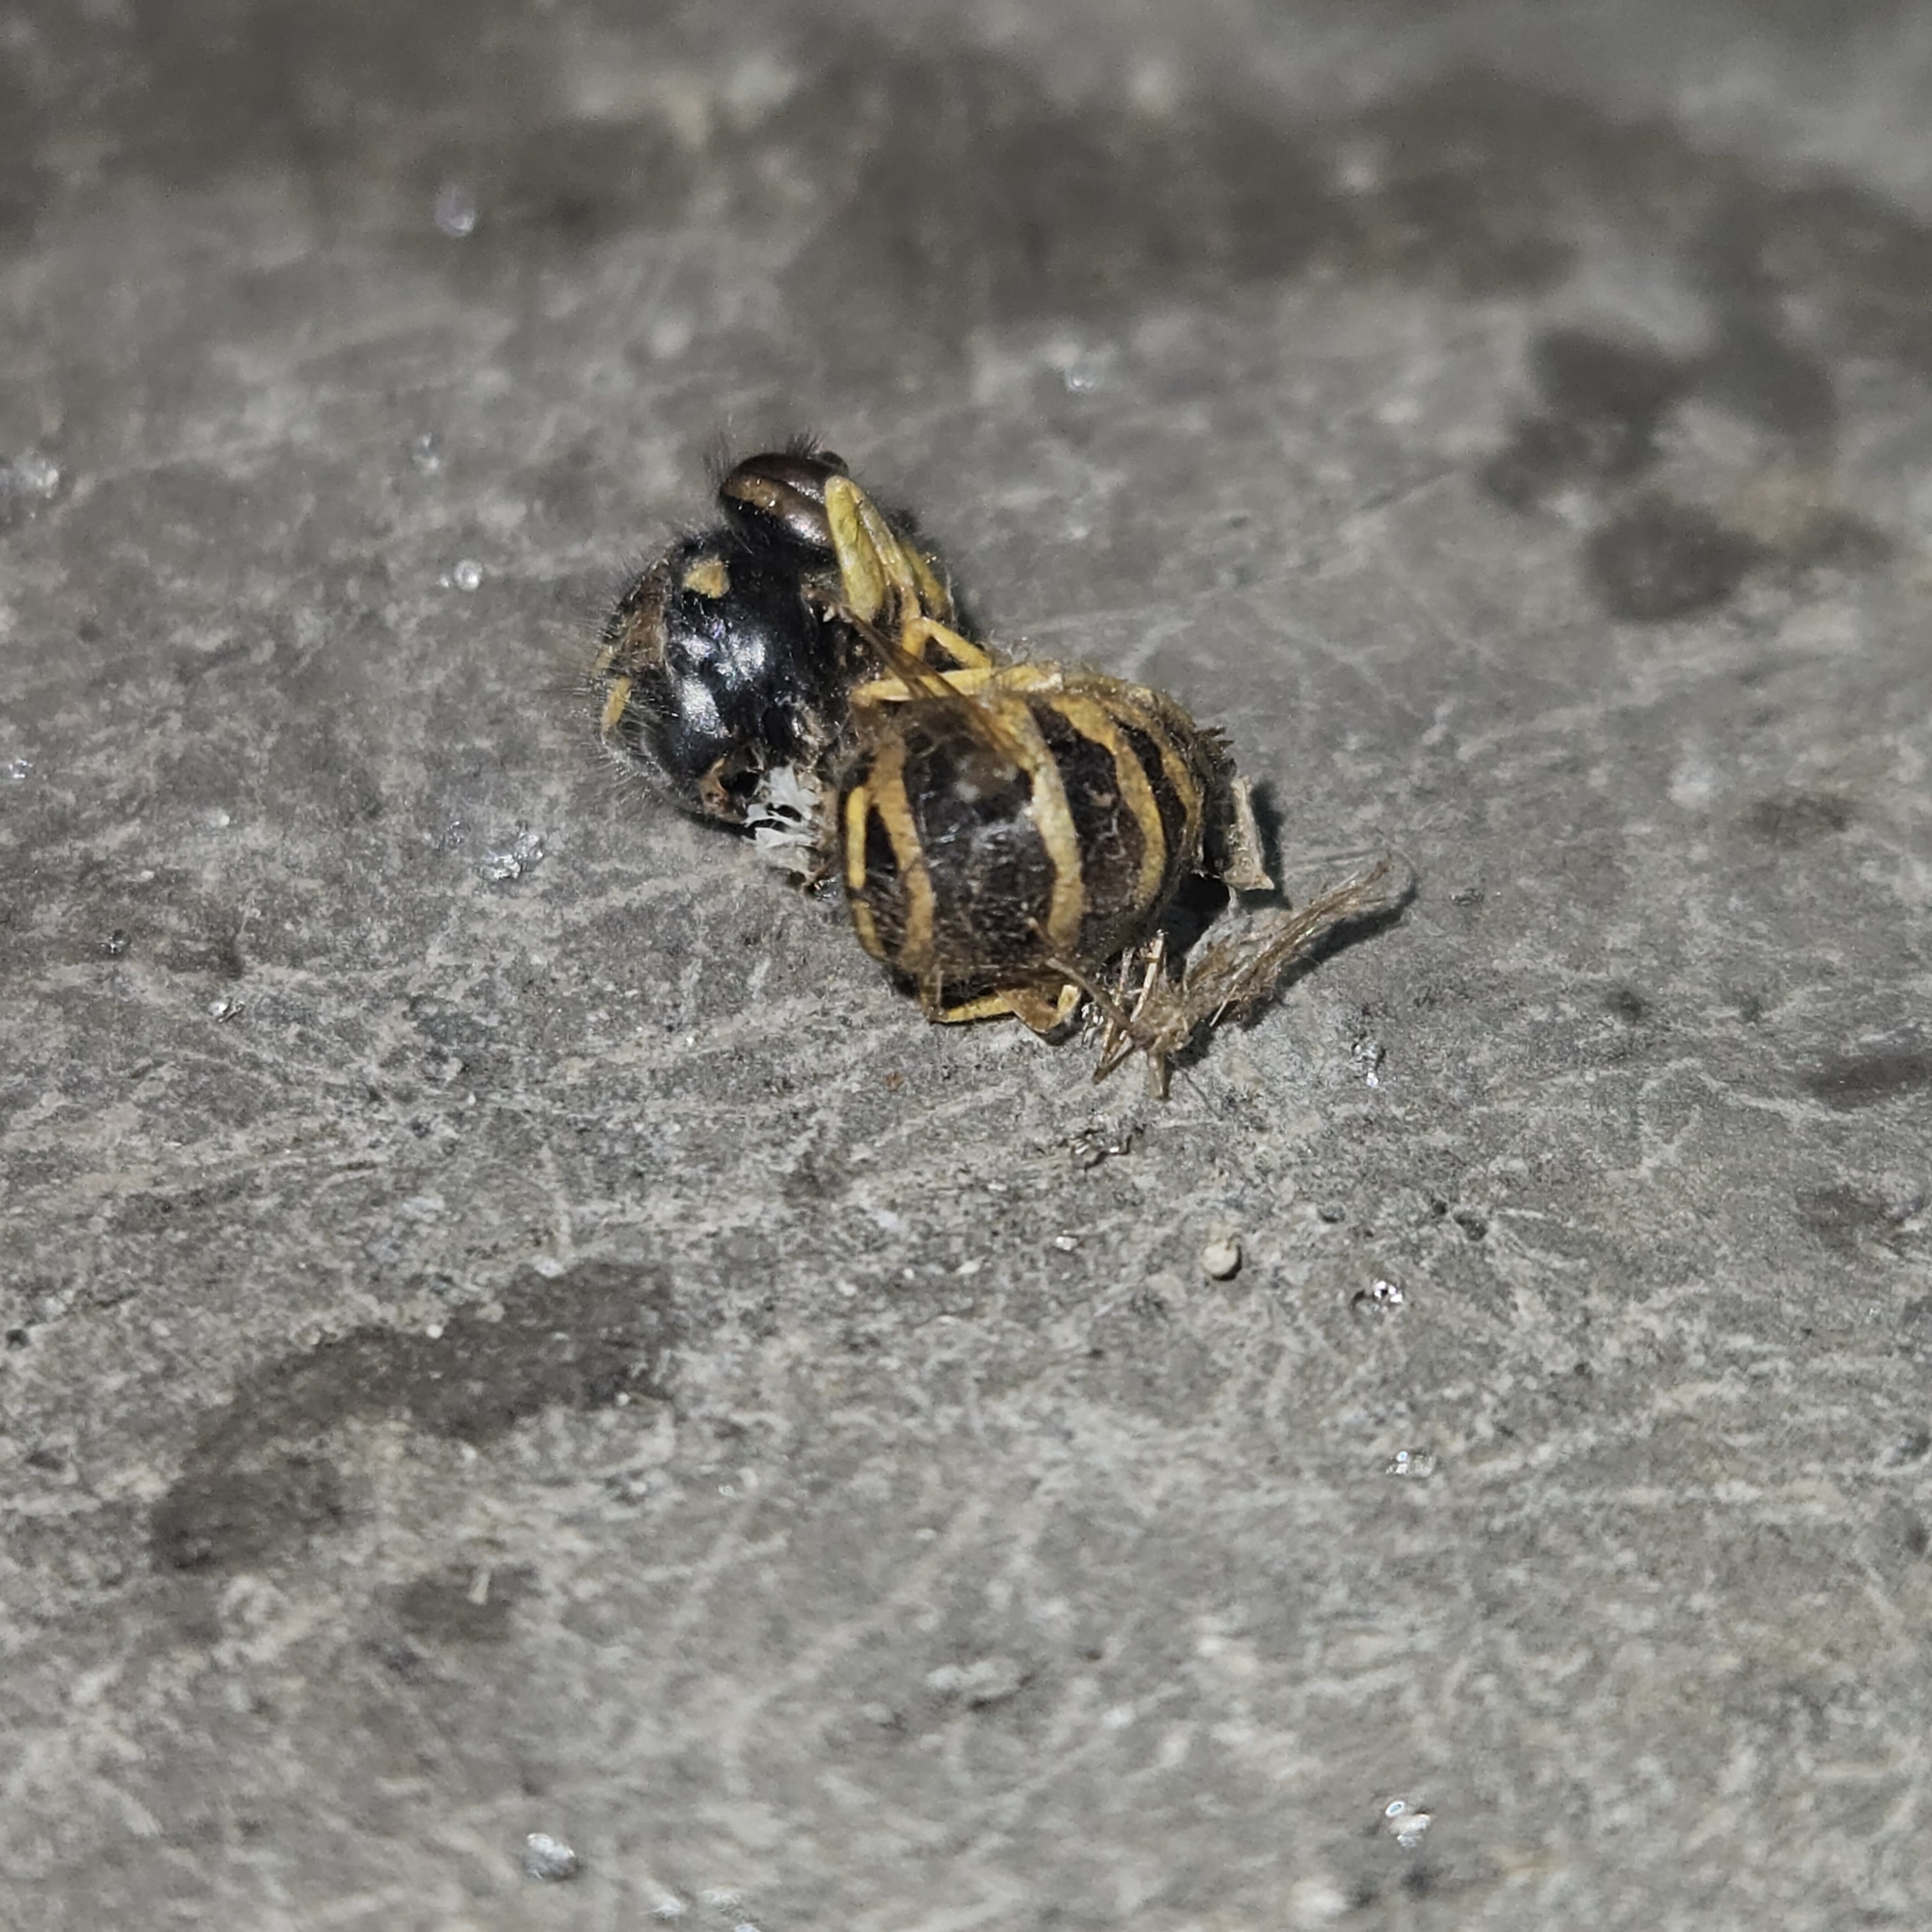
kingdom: Animalia
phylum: Arthropoda
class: Insecta
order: Hymenoptera
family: Vespidae
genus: Vespula
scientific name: Vespula maculifrons
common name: Eastern yellowjacket
